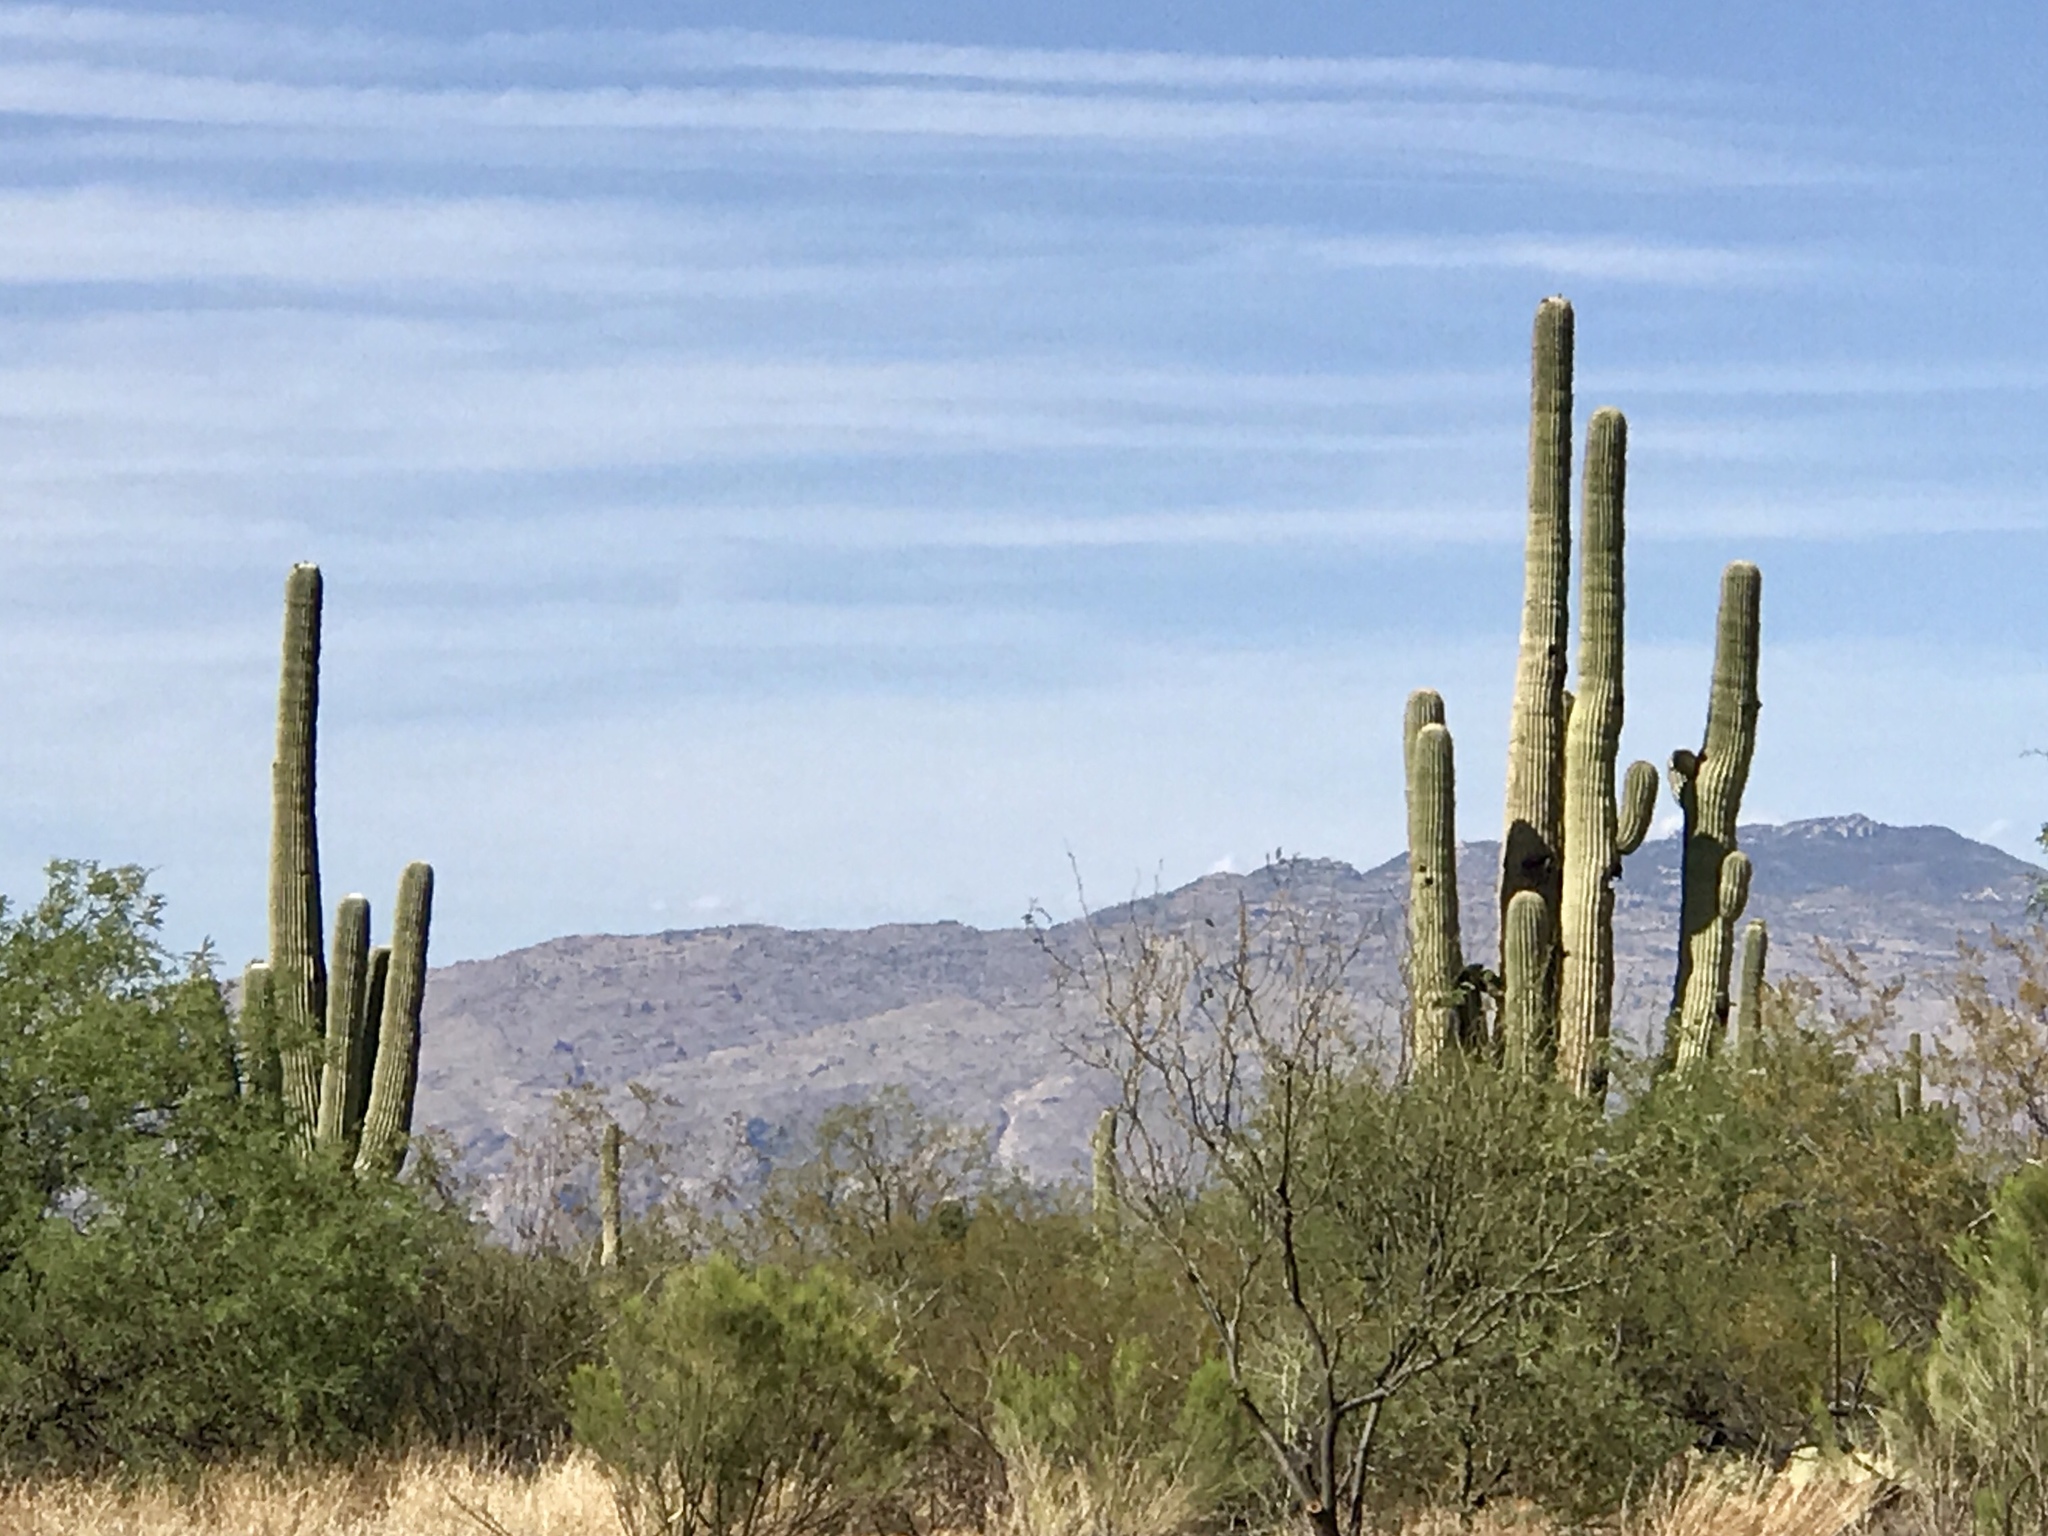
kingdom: Plantae
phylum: Tracheophyta
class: Magnoliopsida
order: Caryophyllales
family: Cactaceae
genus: Carnegiea
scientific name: Carnegiea gigantea
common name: Saguaro
